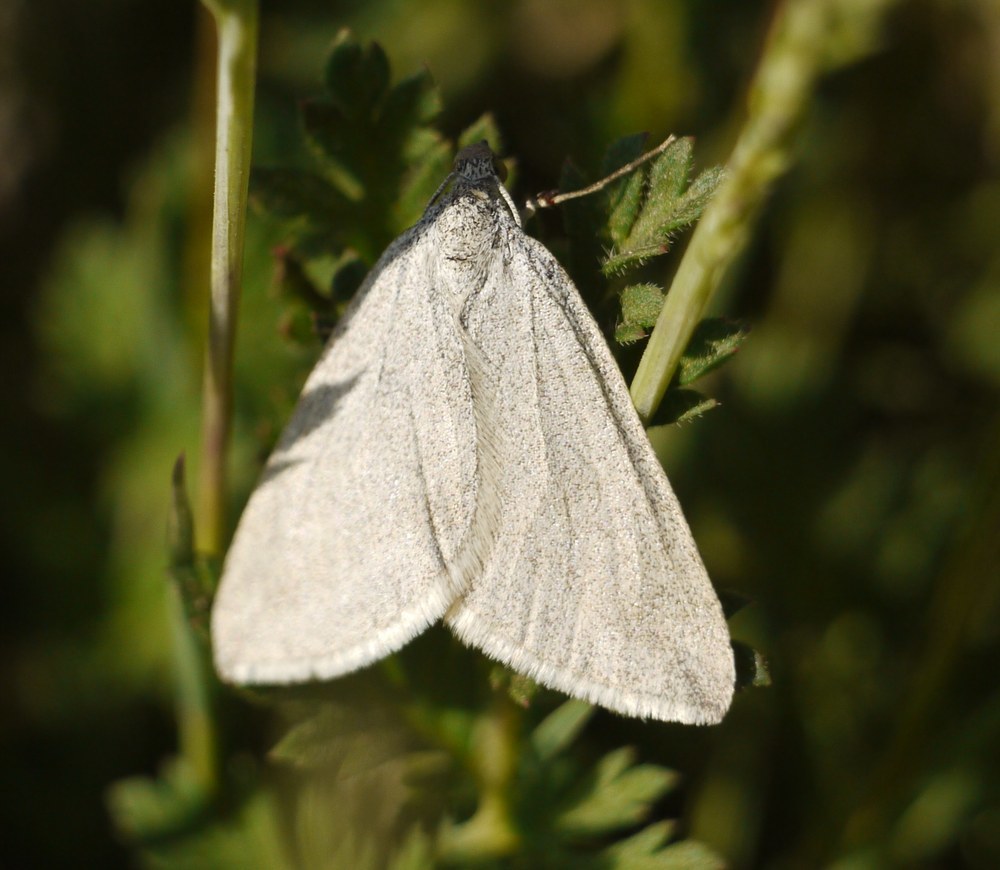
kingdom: Animalia
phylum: Arthropoda
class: Insecta
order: Lepidoptera
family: Geometridae
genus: Lithostege
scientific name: Lithostege farinata
